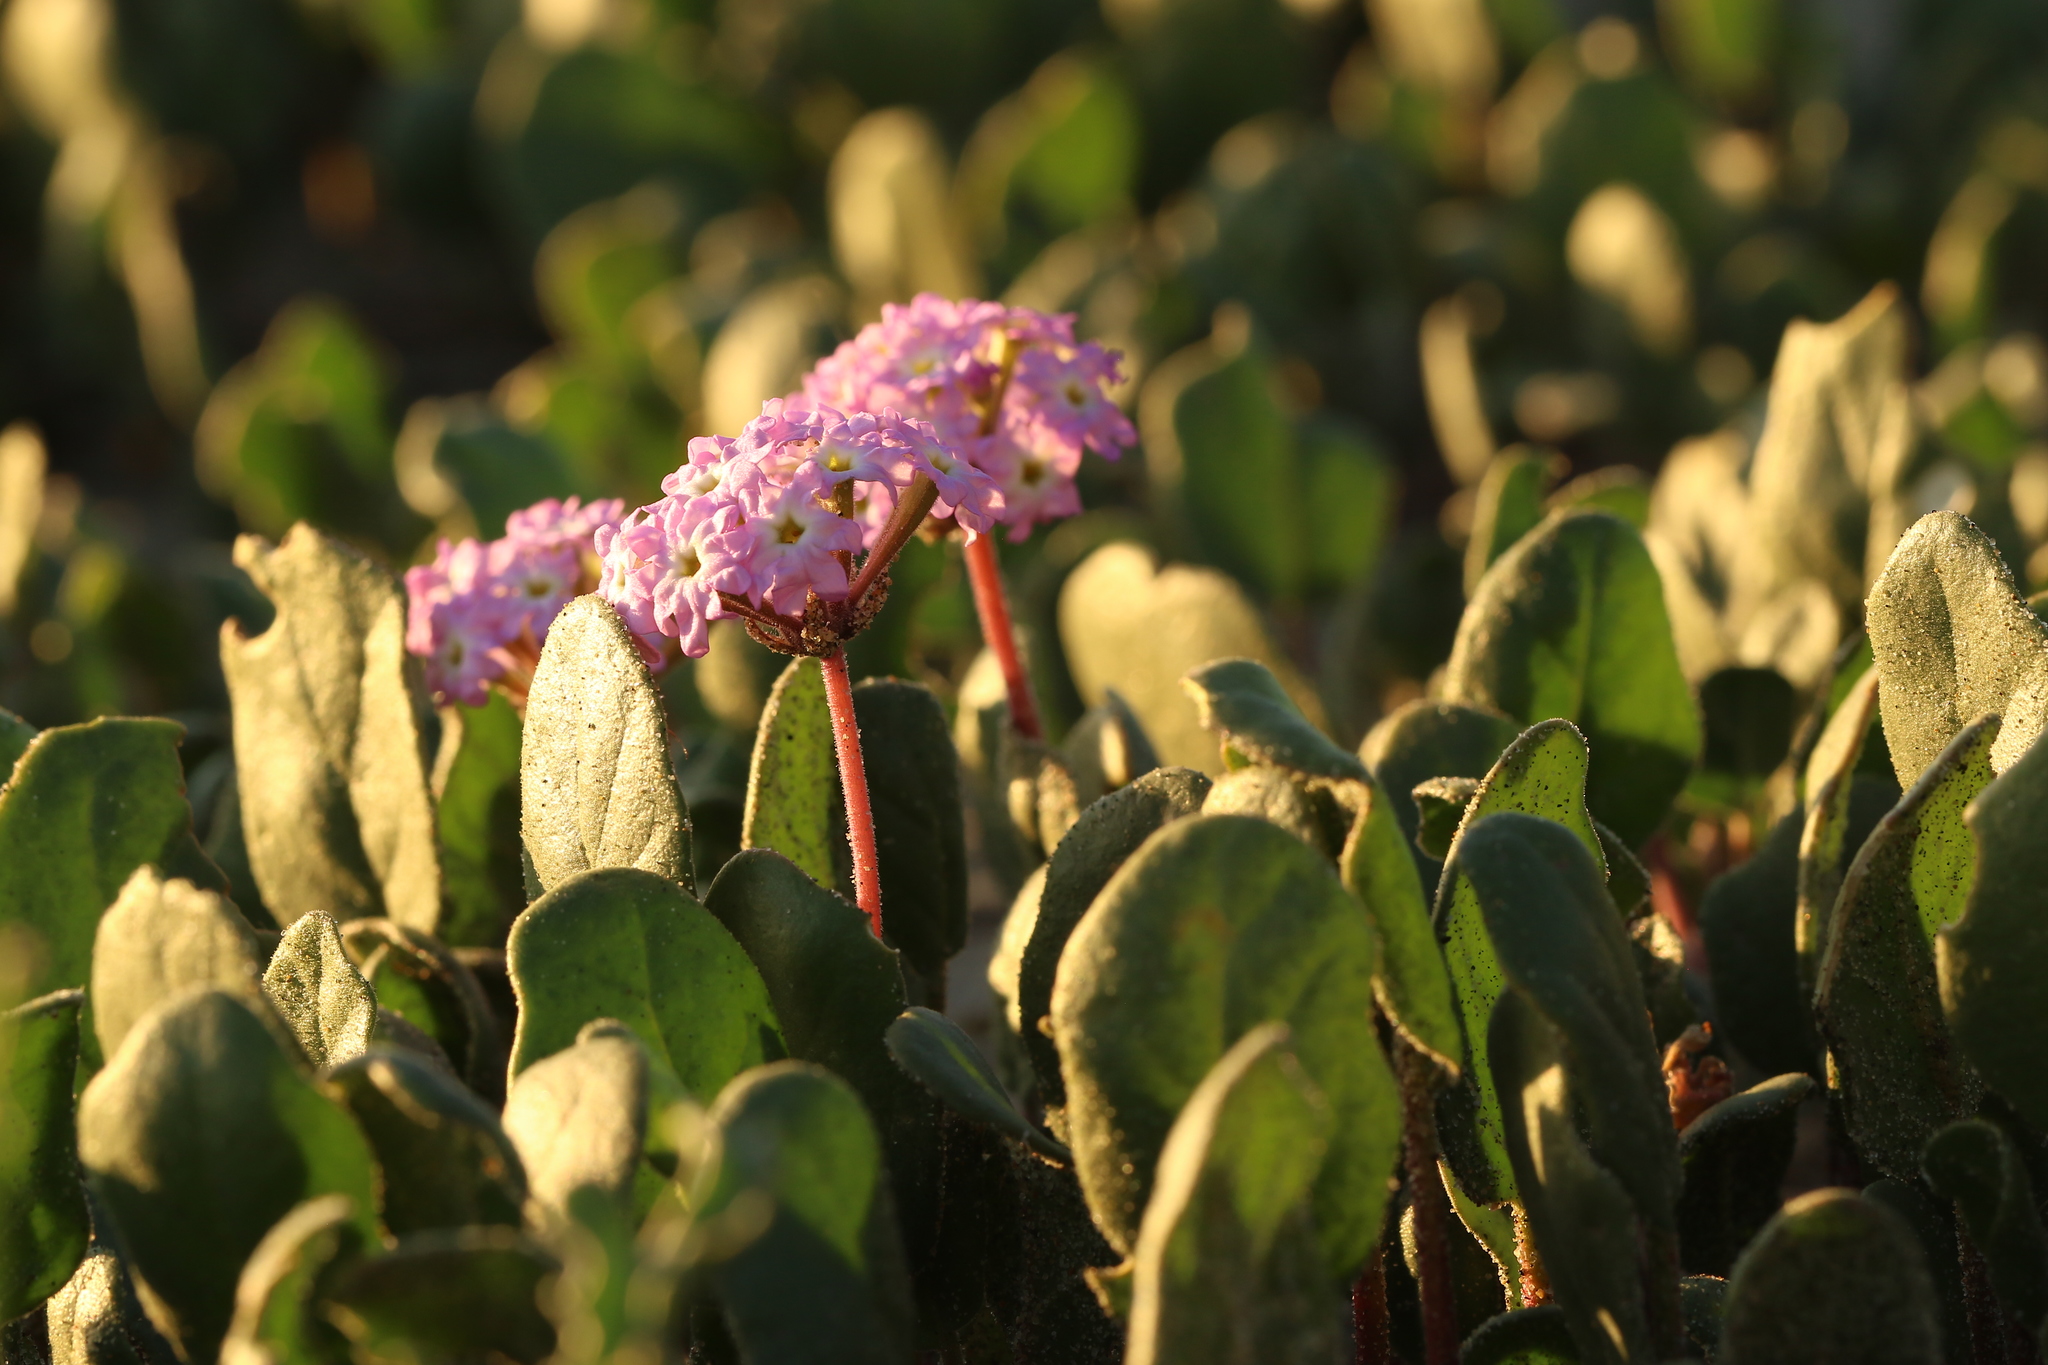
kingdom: Plantae
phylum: Tracheophyta
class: Magnoliopsida
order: Caryophyllales
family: Nyctaginaceae
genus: Abronia
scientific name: Abronia umbellata
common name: Sand-verbena
